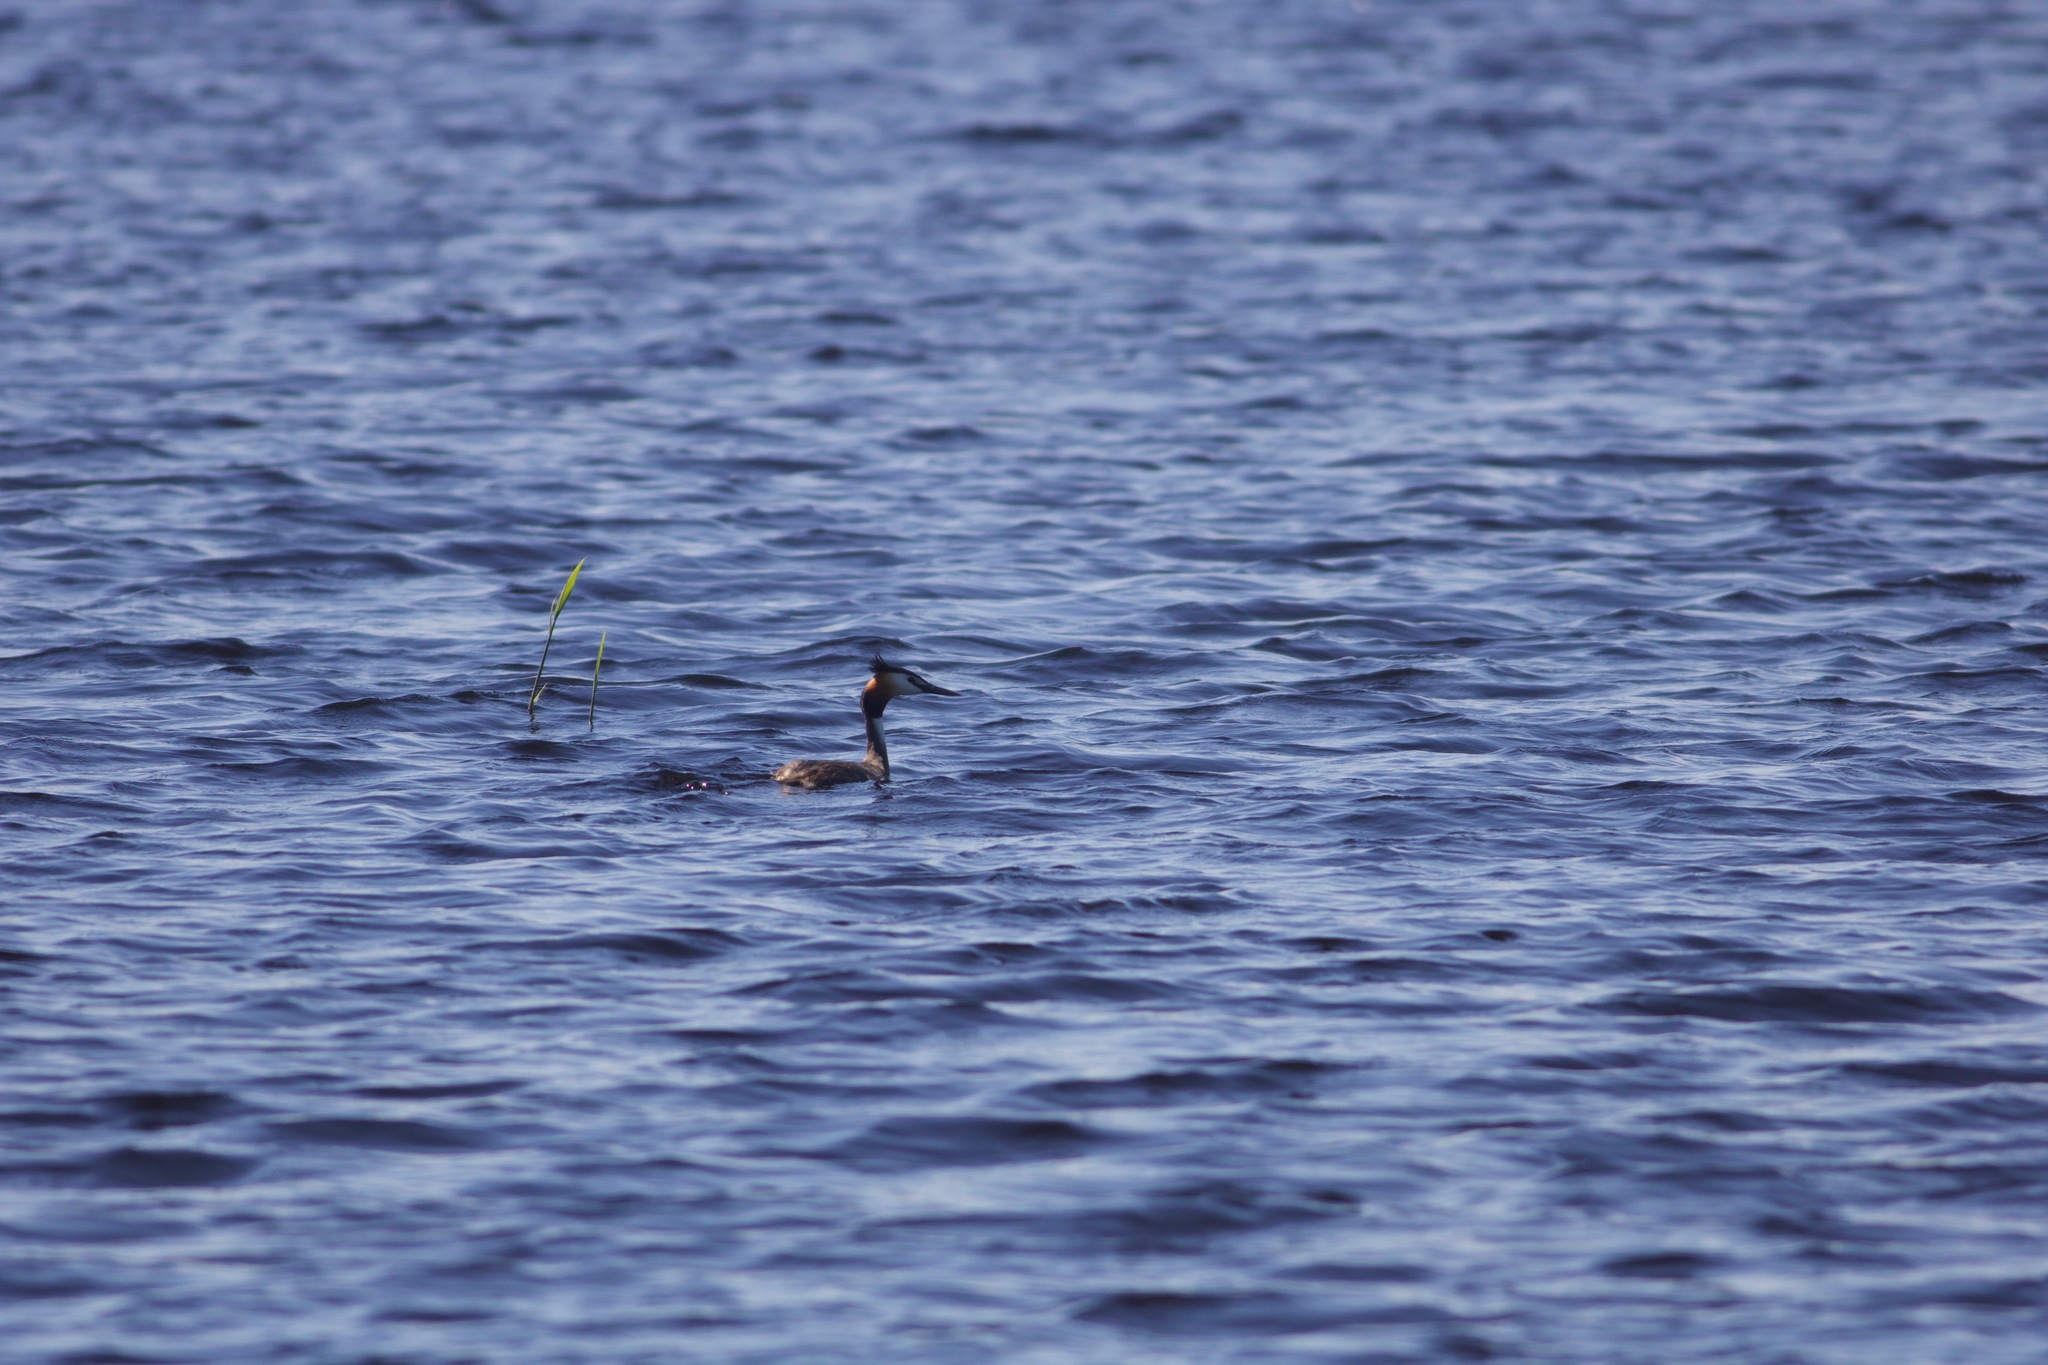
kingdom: Animalia
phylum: Chordata
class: Aves
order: Podicipediformes
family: Podicipedidae
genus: Podiceps
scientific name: Podiceps cristatus
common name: Great crested grebe
